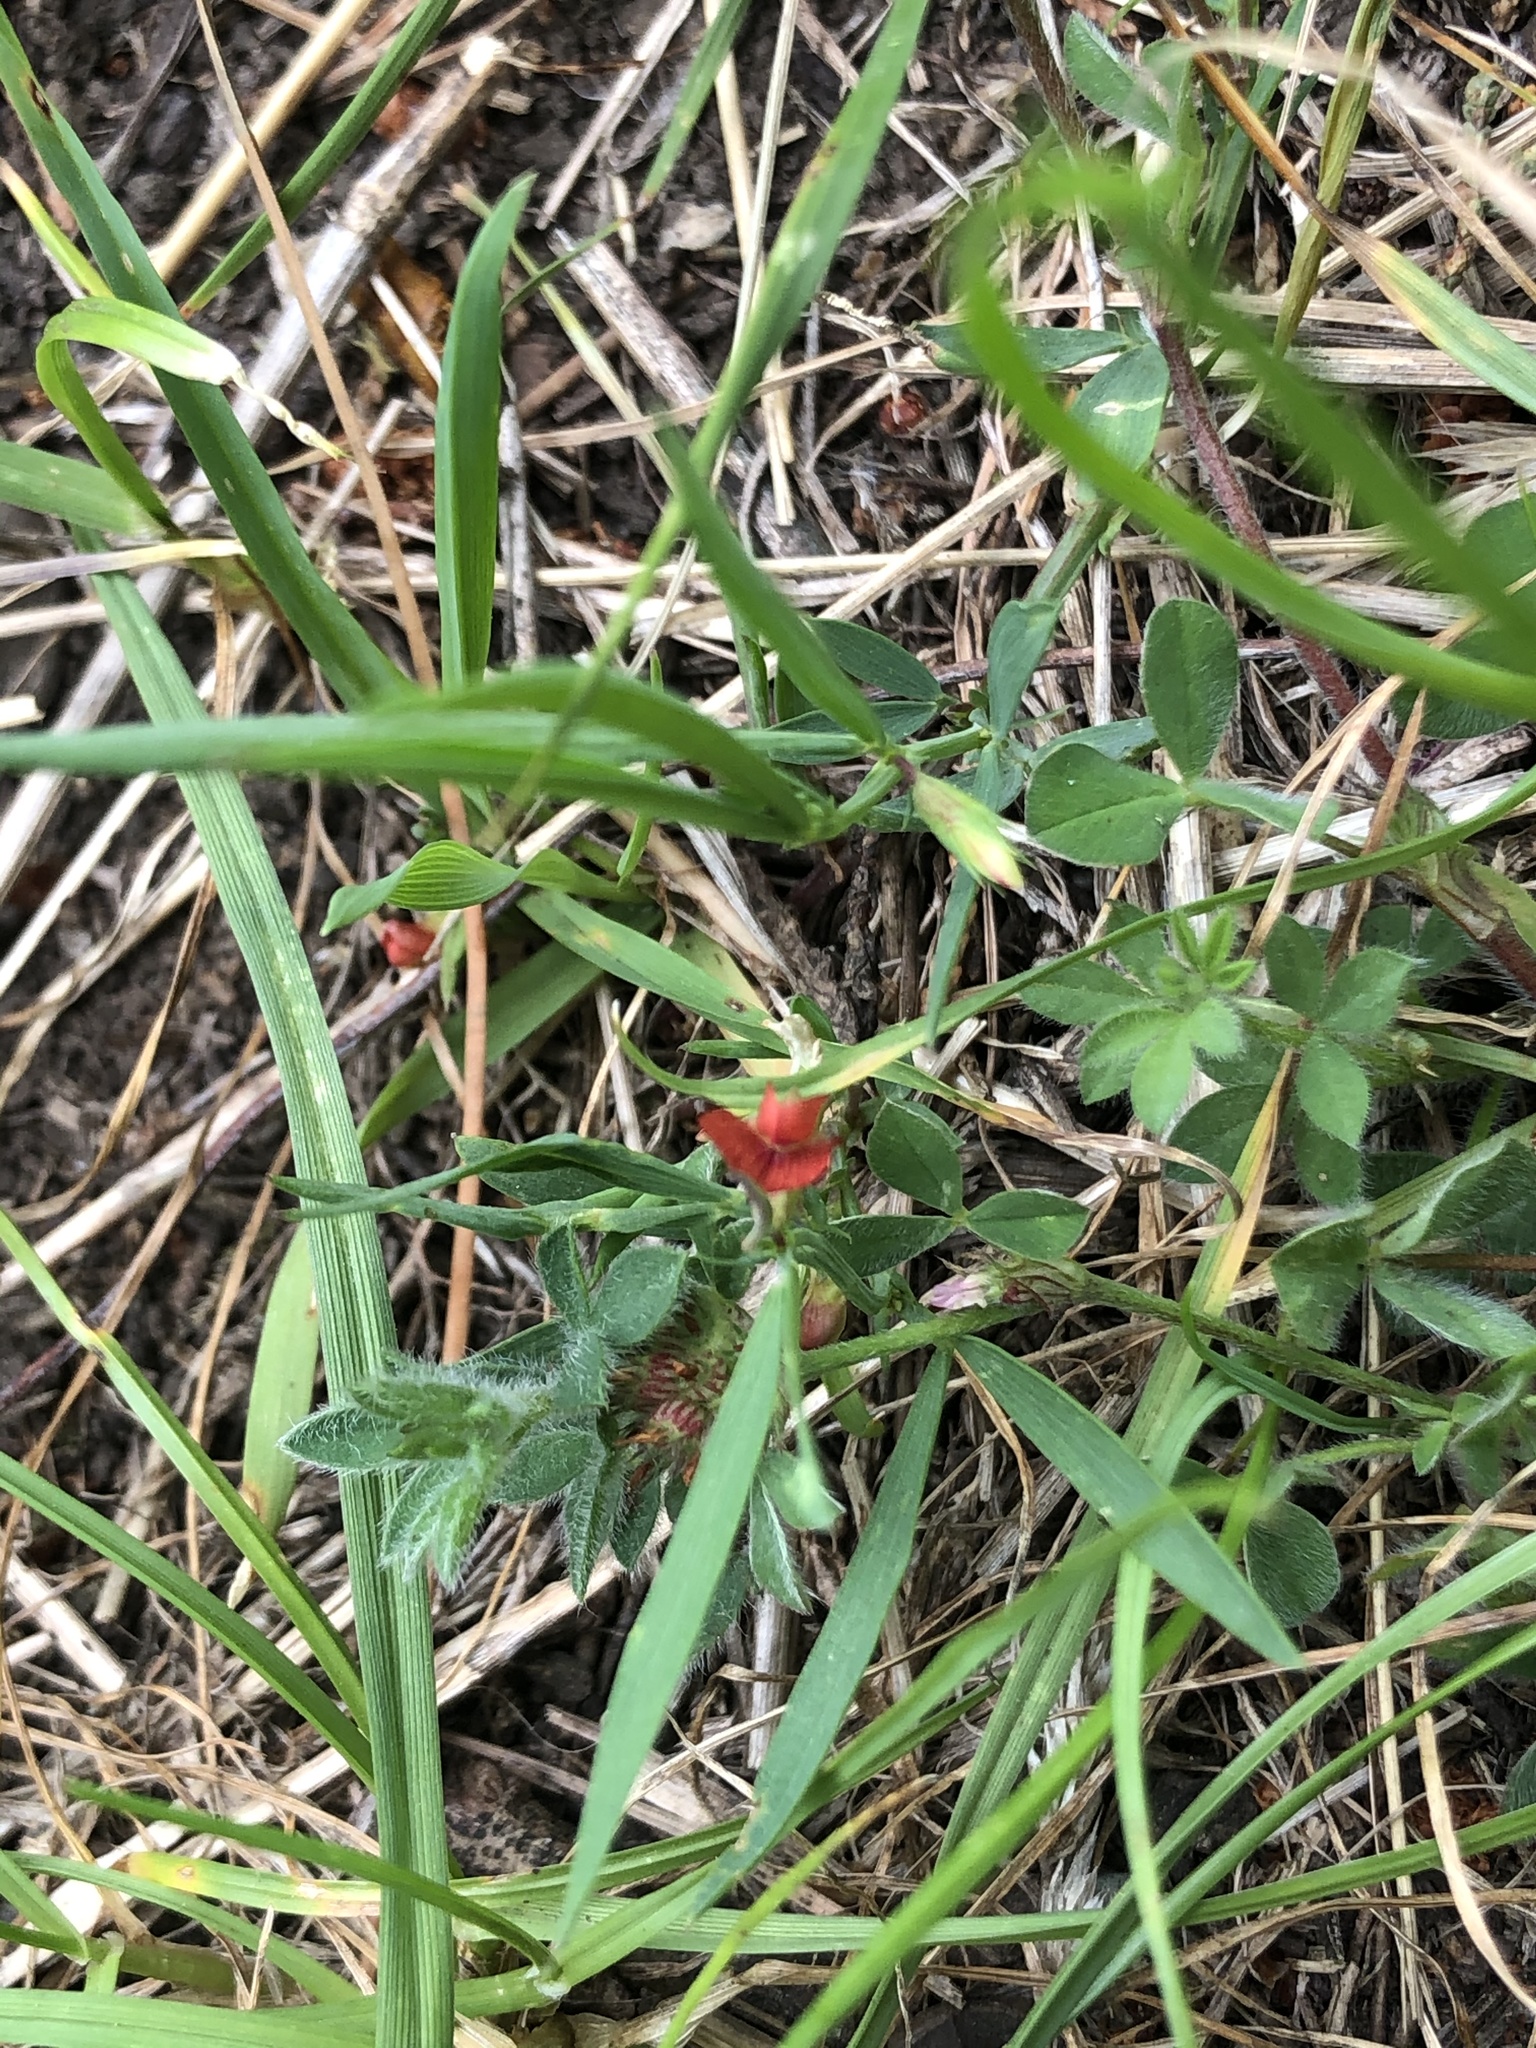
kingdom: Plantae
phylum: Tracheophyta
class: Magnoliopsida
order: Fabales
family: Fabaceae
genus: Lathyrus
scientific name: Lathyrus sphaericus
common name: Grass pea
